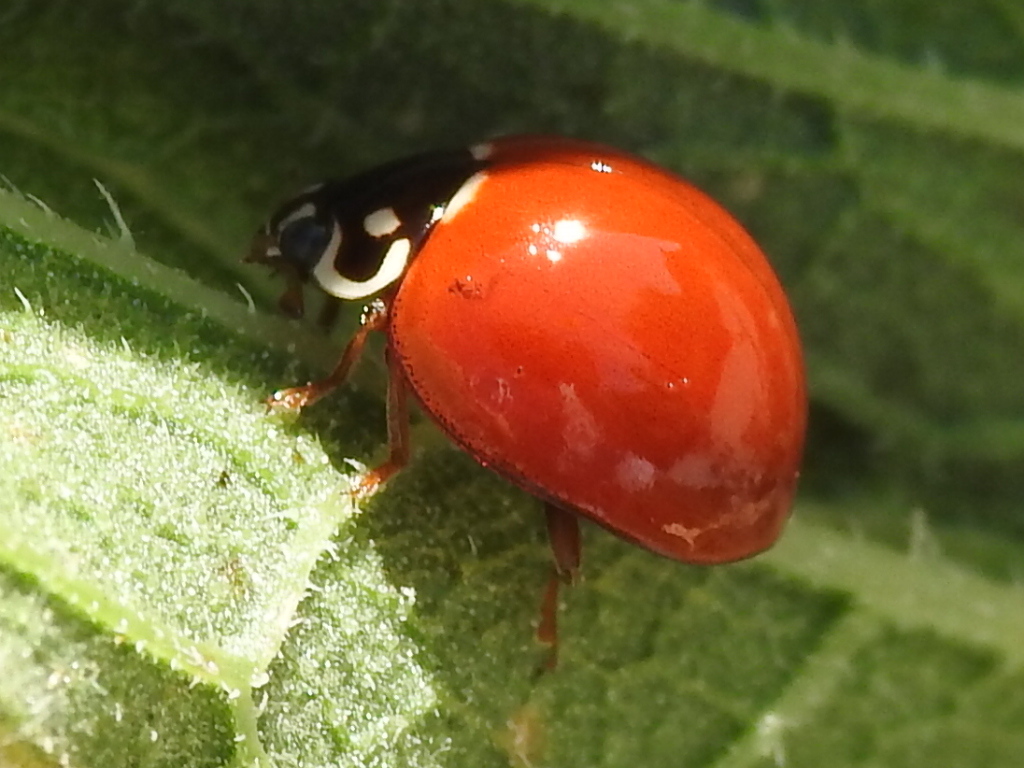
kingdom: Animalia
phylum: Arthropoda
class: Insecta
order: Coleoptera
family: Coccinellidae
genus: Cycloneda
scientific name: Cycloneda sanguinea
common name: Ladybird beetle
